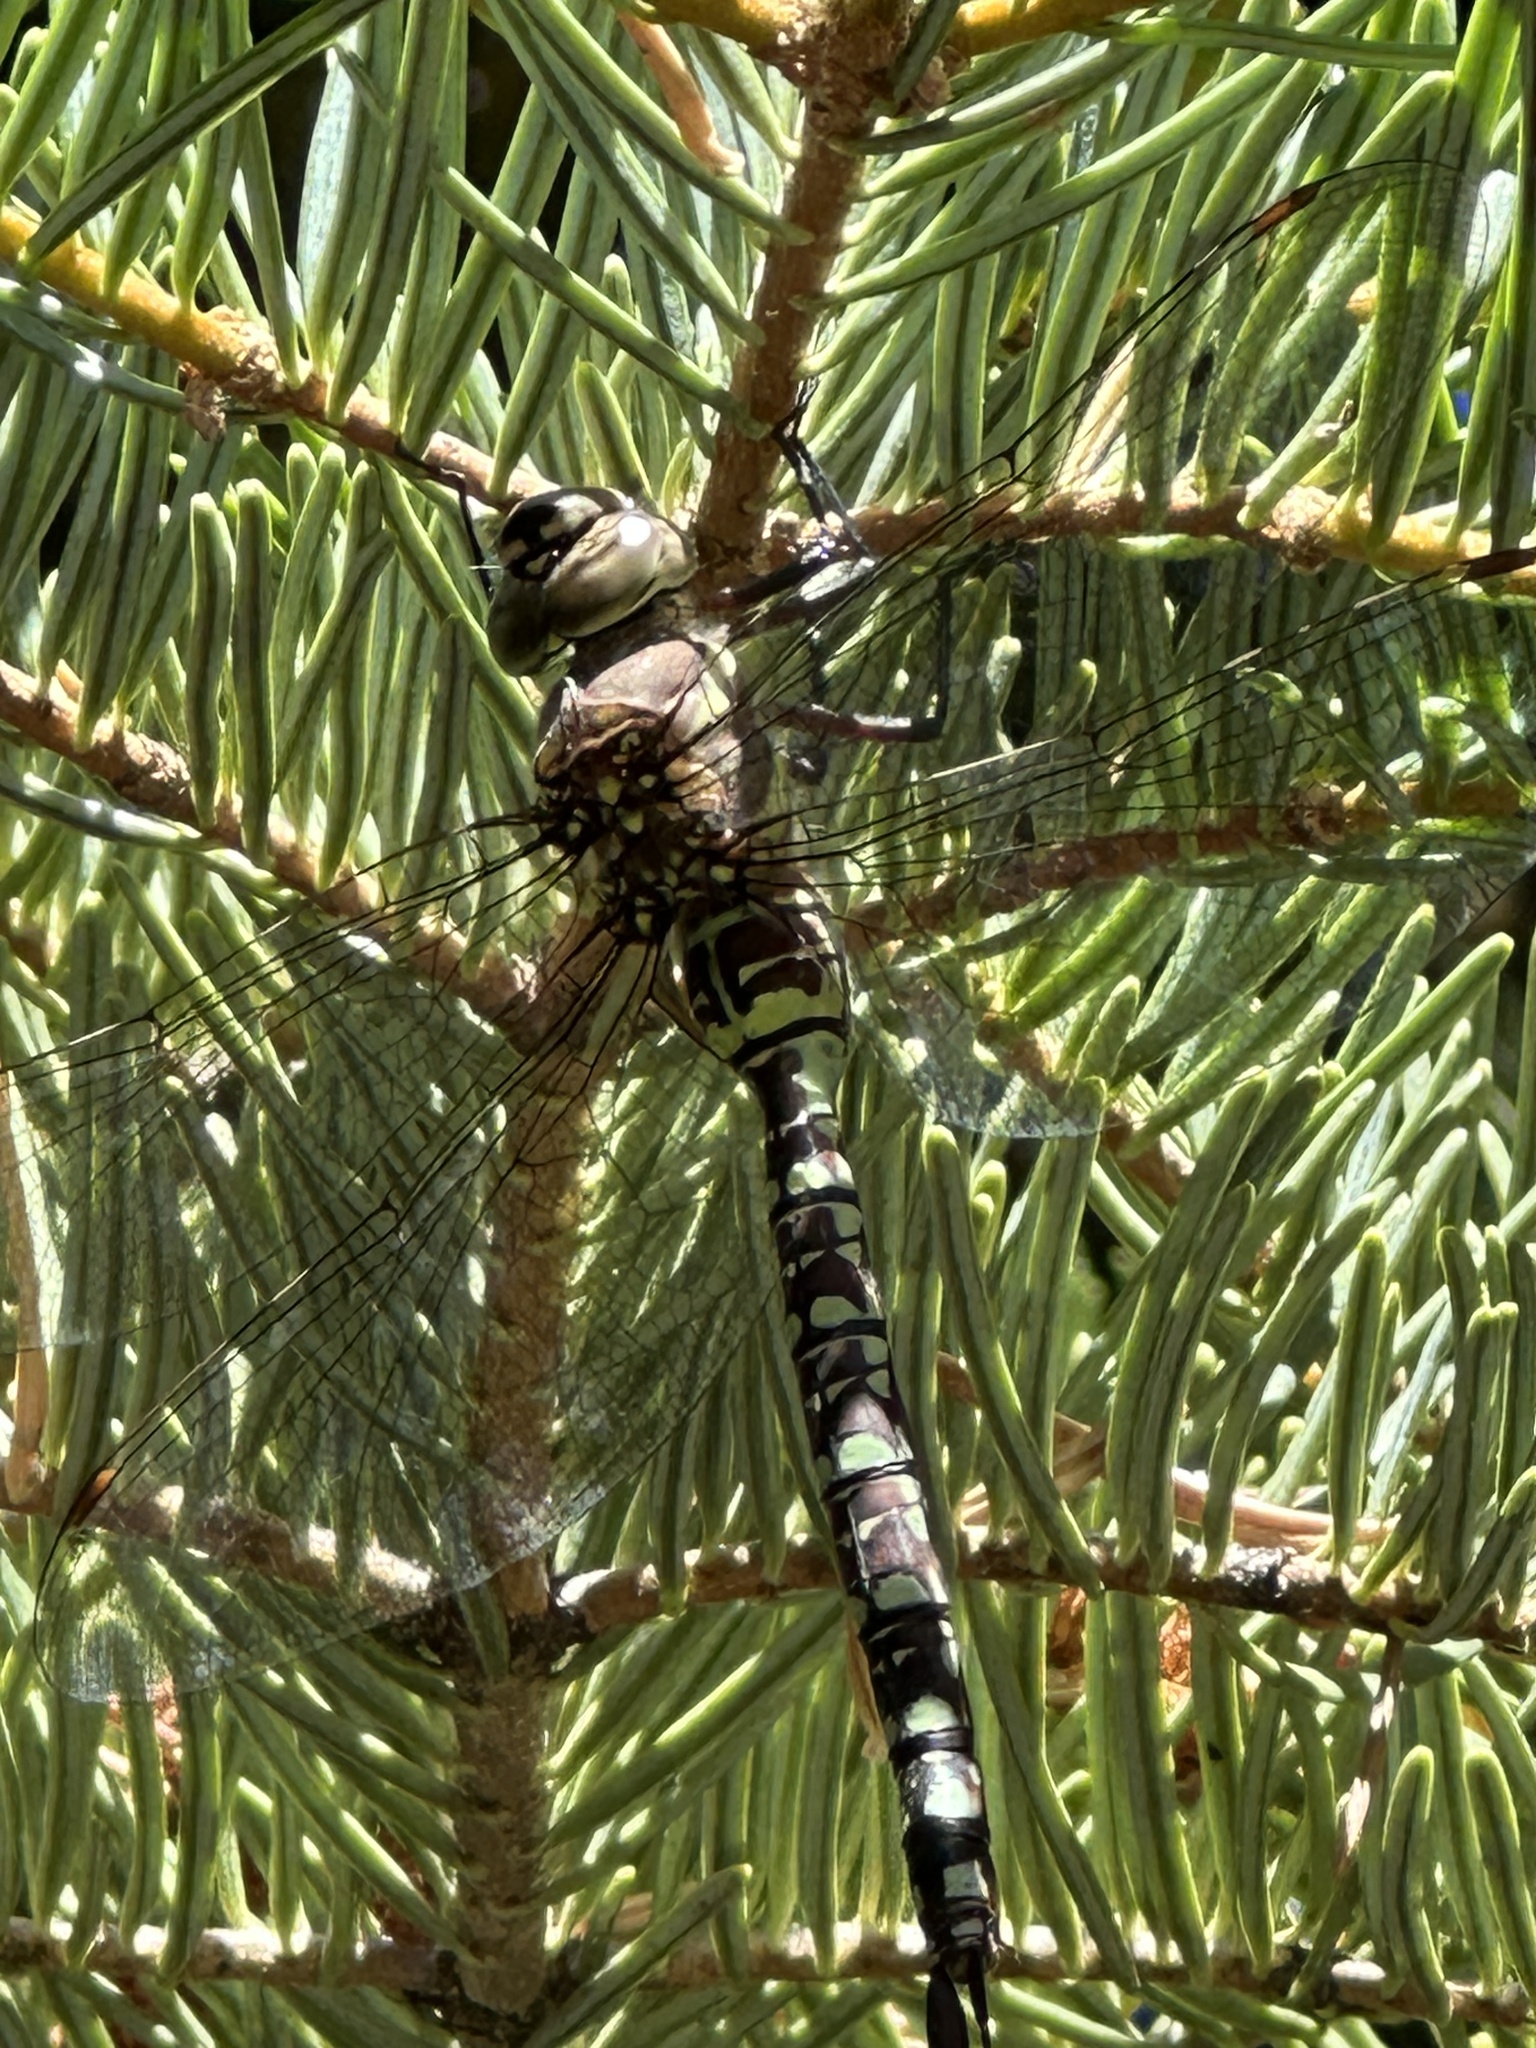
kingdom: Animalia
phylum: Arthropoda
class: Insecta
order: Odonata
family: Aeshnidae
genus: Aeshna
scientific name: Aeshna palmata
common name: Paddle-tailed darner
